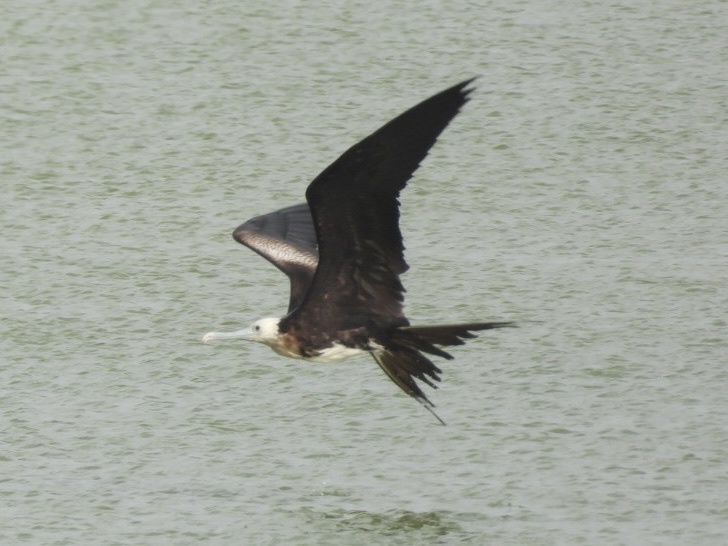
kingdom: Animalia
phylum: Chordata
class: Aves
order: Suliformes
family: Fregatidae
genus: Fregata
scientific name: Fregata magnificens
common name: Magnificent frigatebird
